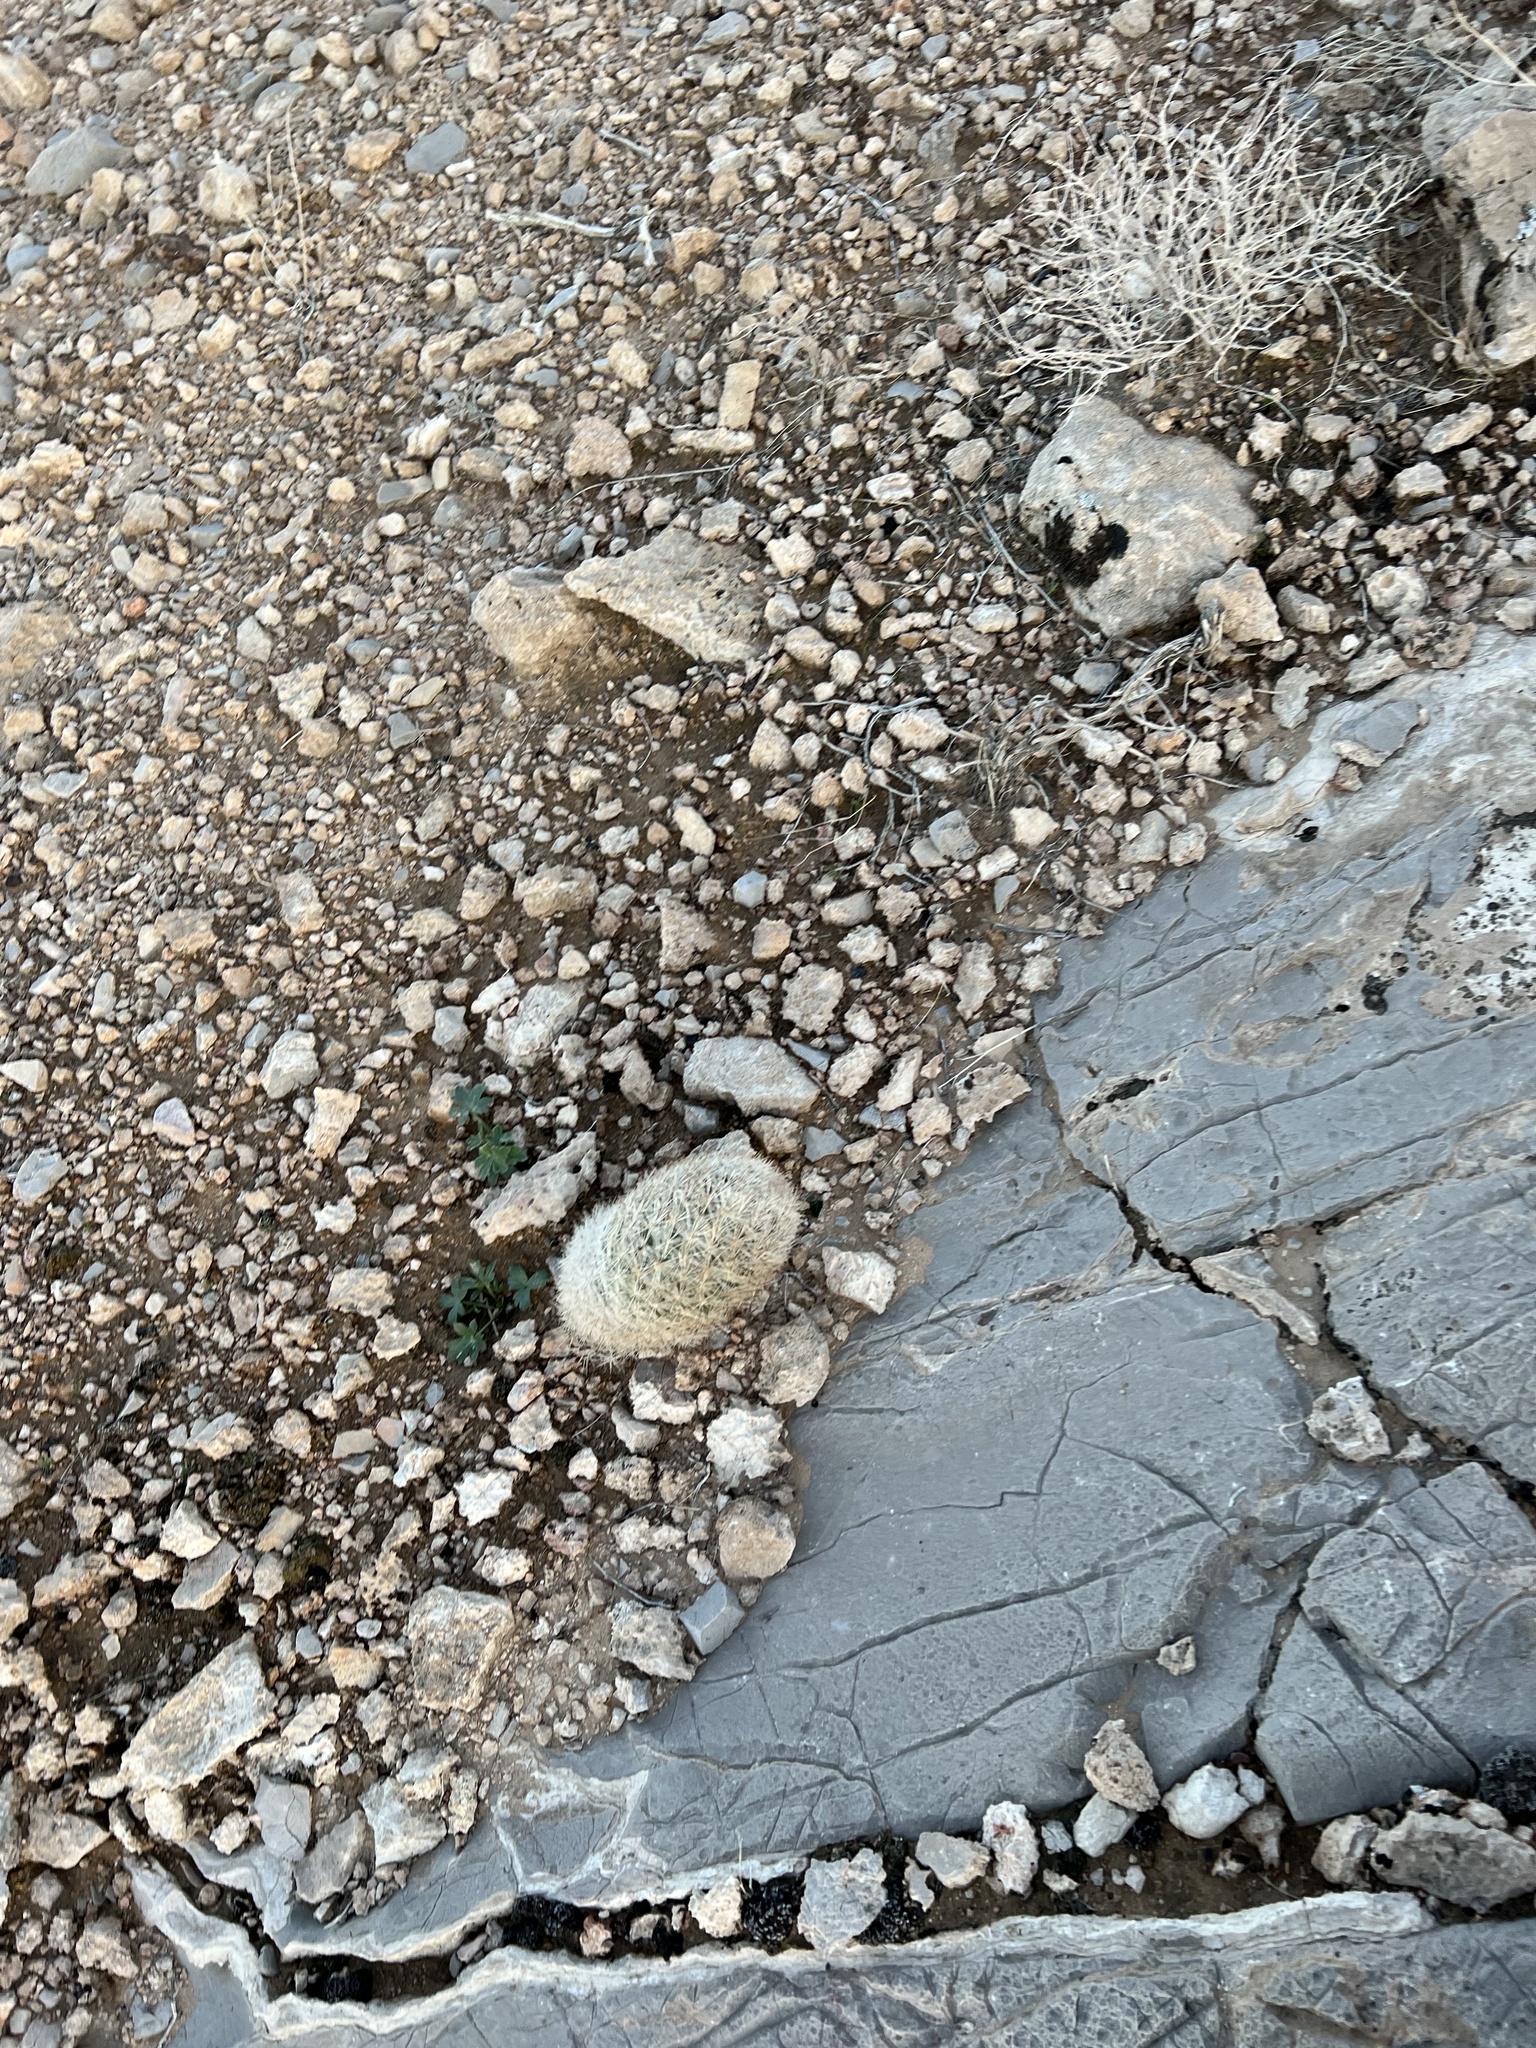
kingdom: Plantae
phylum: Tracheophyta
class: Magnoliopsida
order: Caryophyllales
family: Cactaceae
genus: Pelecyphora
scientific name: Pelecyphora dasyacantha
